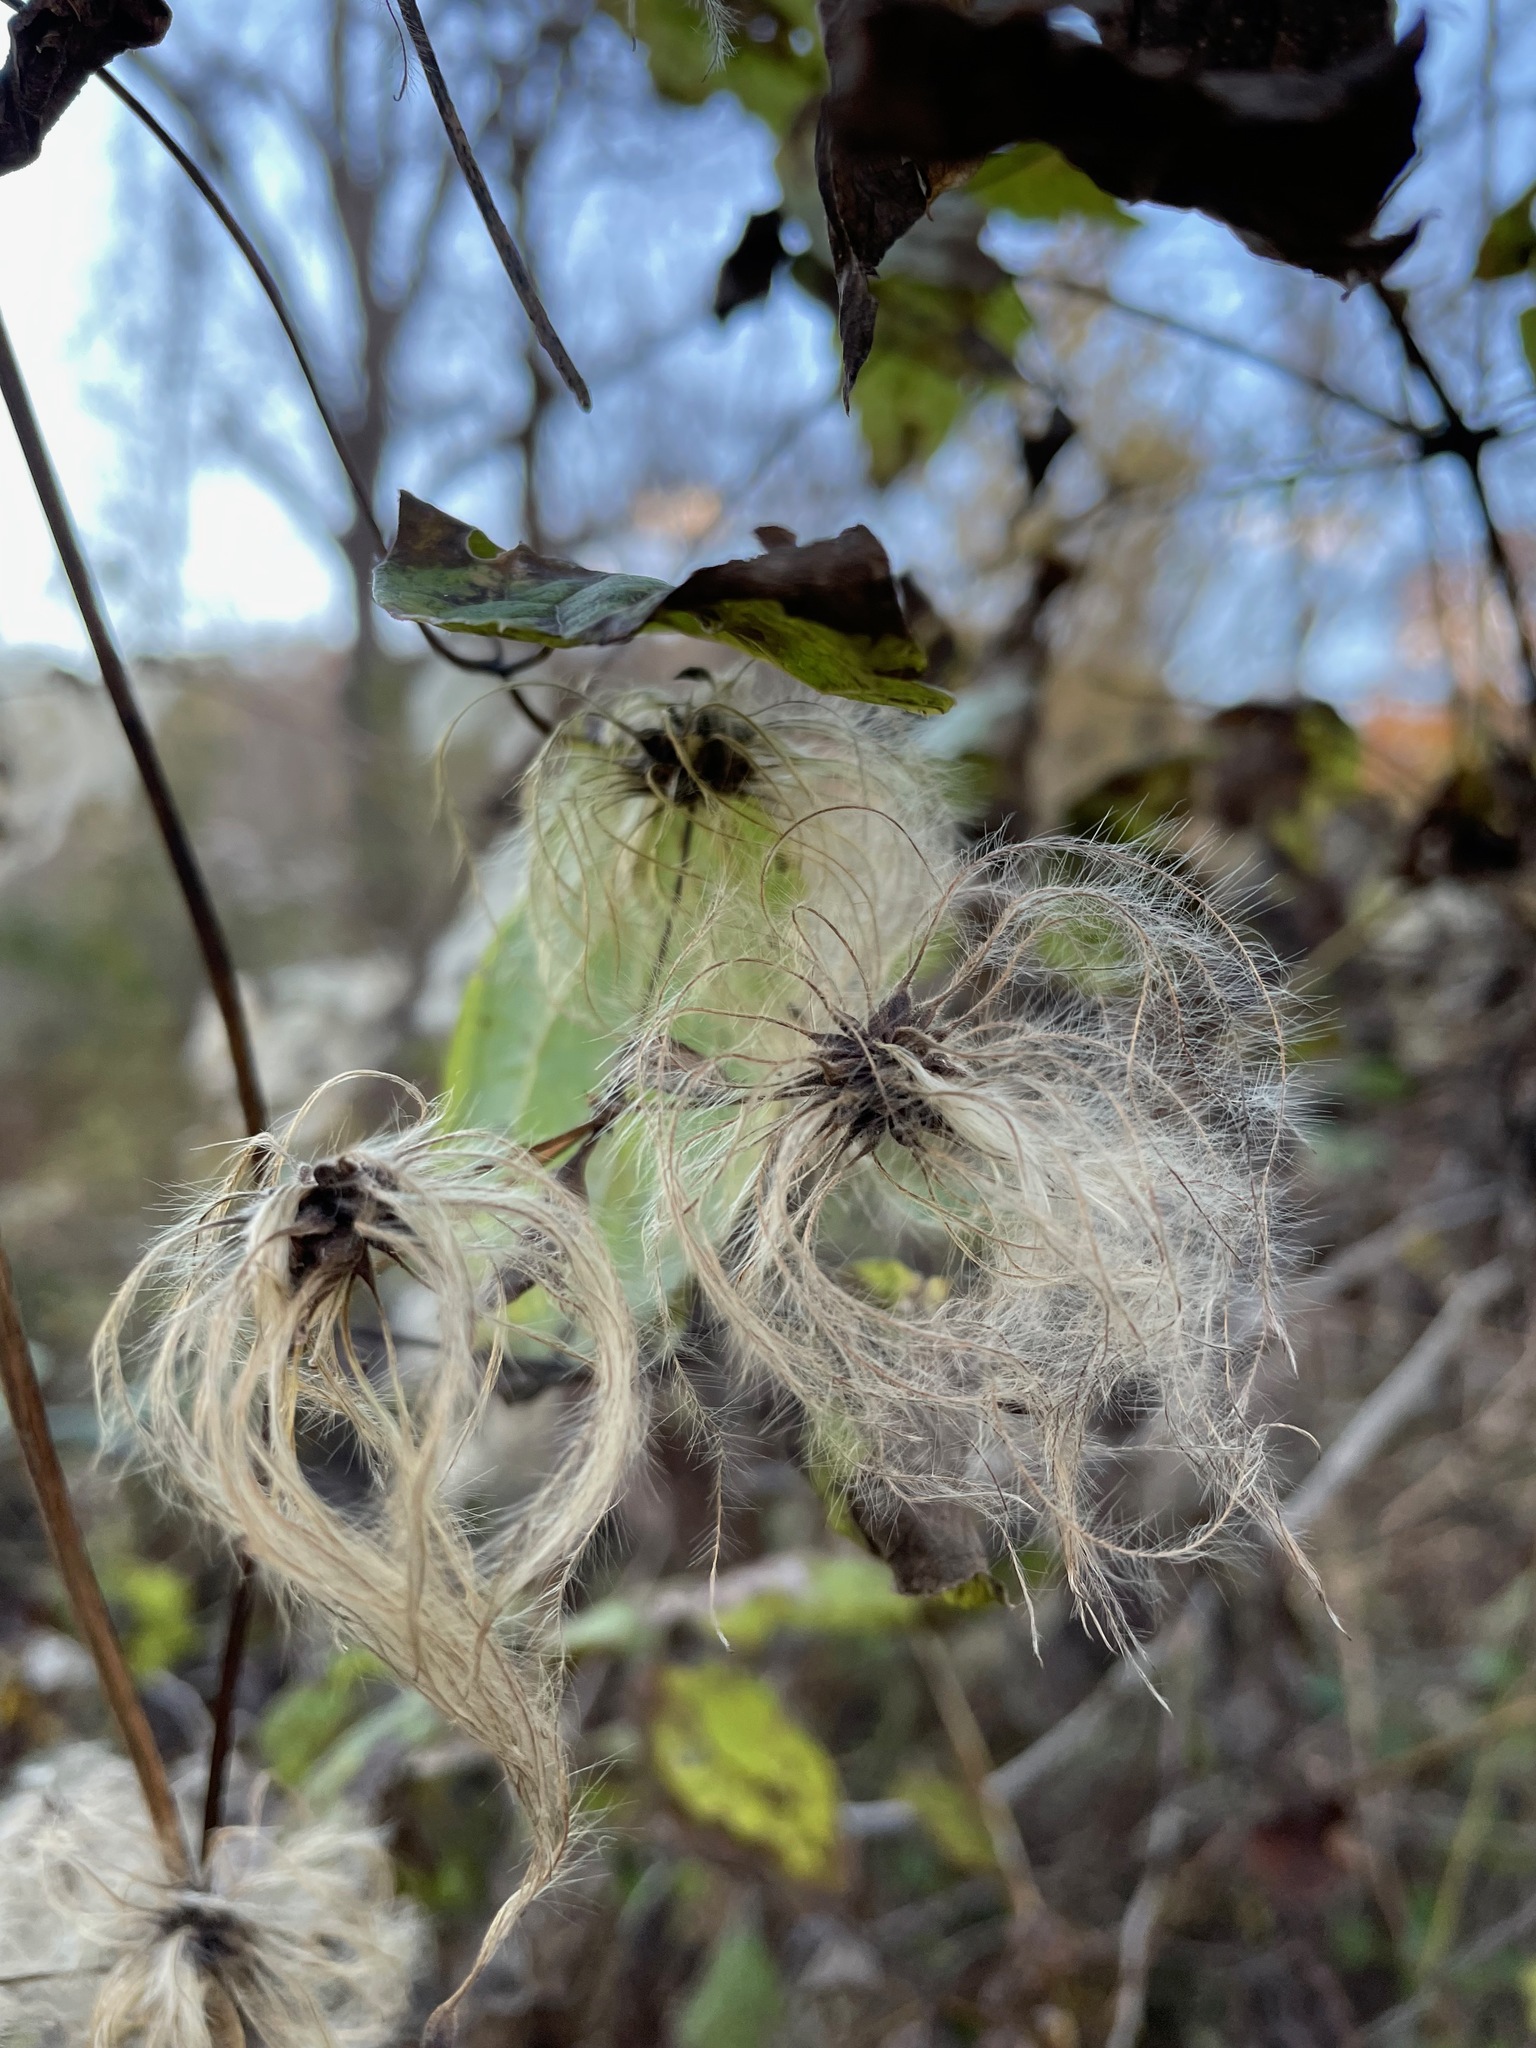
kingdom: Plantae
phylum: Tracheophyta
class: Magnoliopsida
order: Ranunculales
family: Ranunculaceae
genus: Clematis
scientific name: Clematis virginiana
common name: Virgin's-bower
